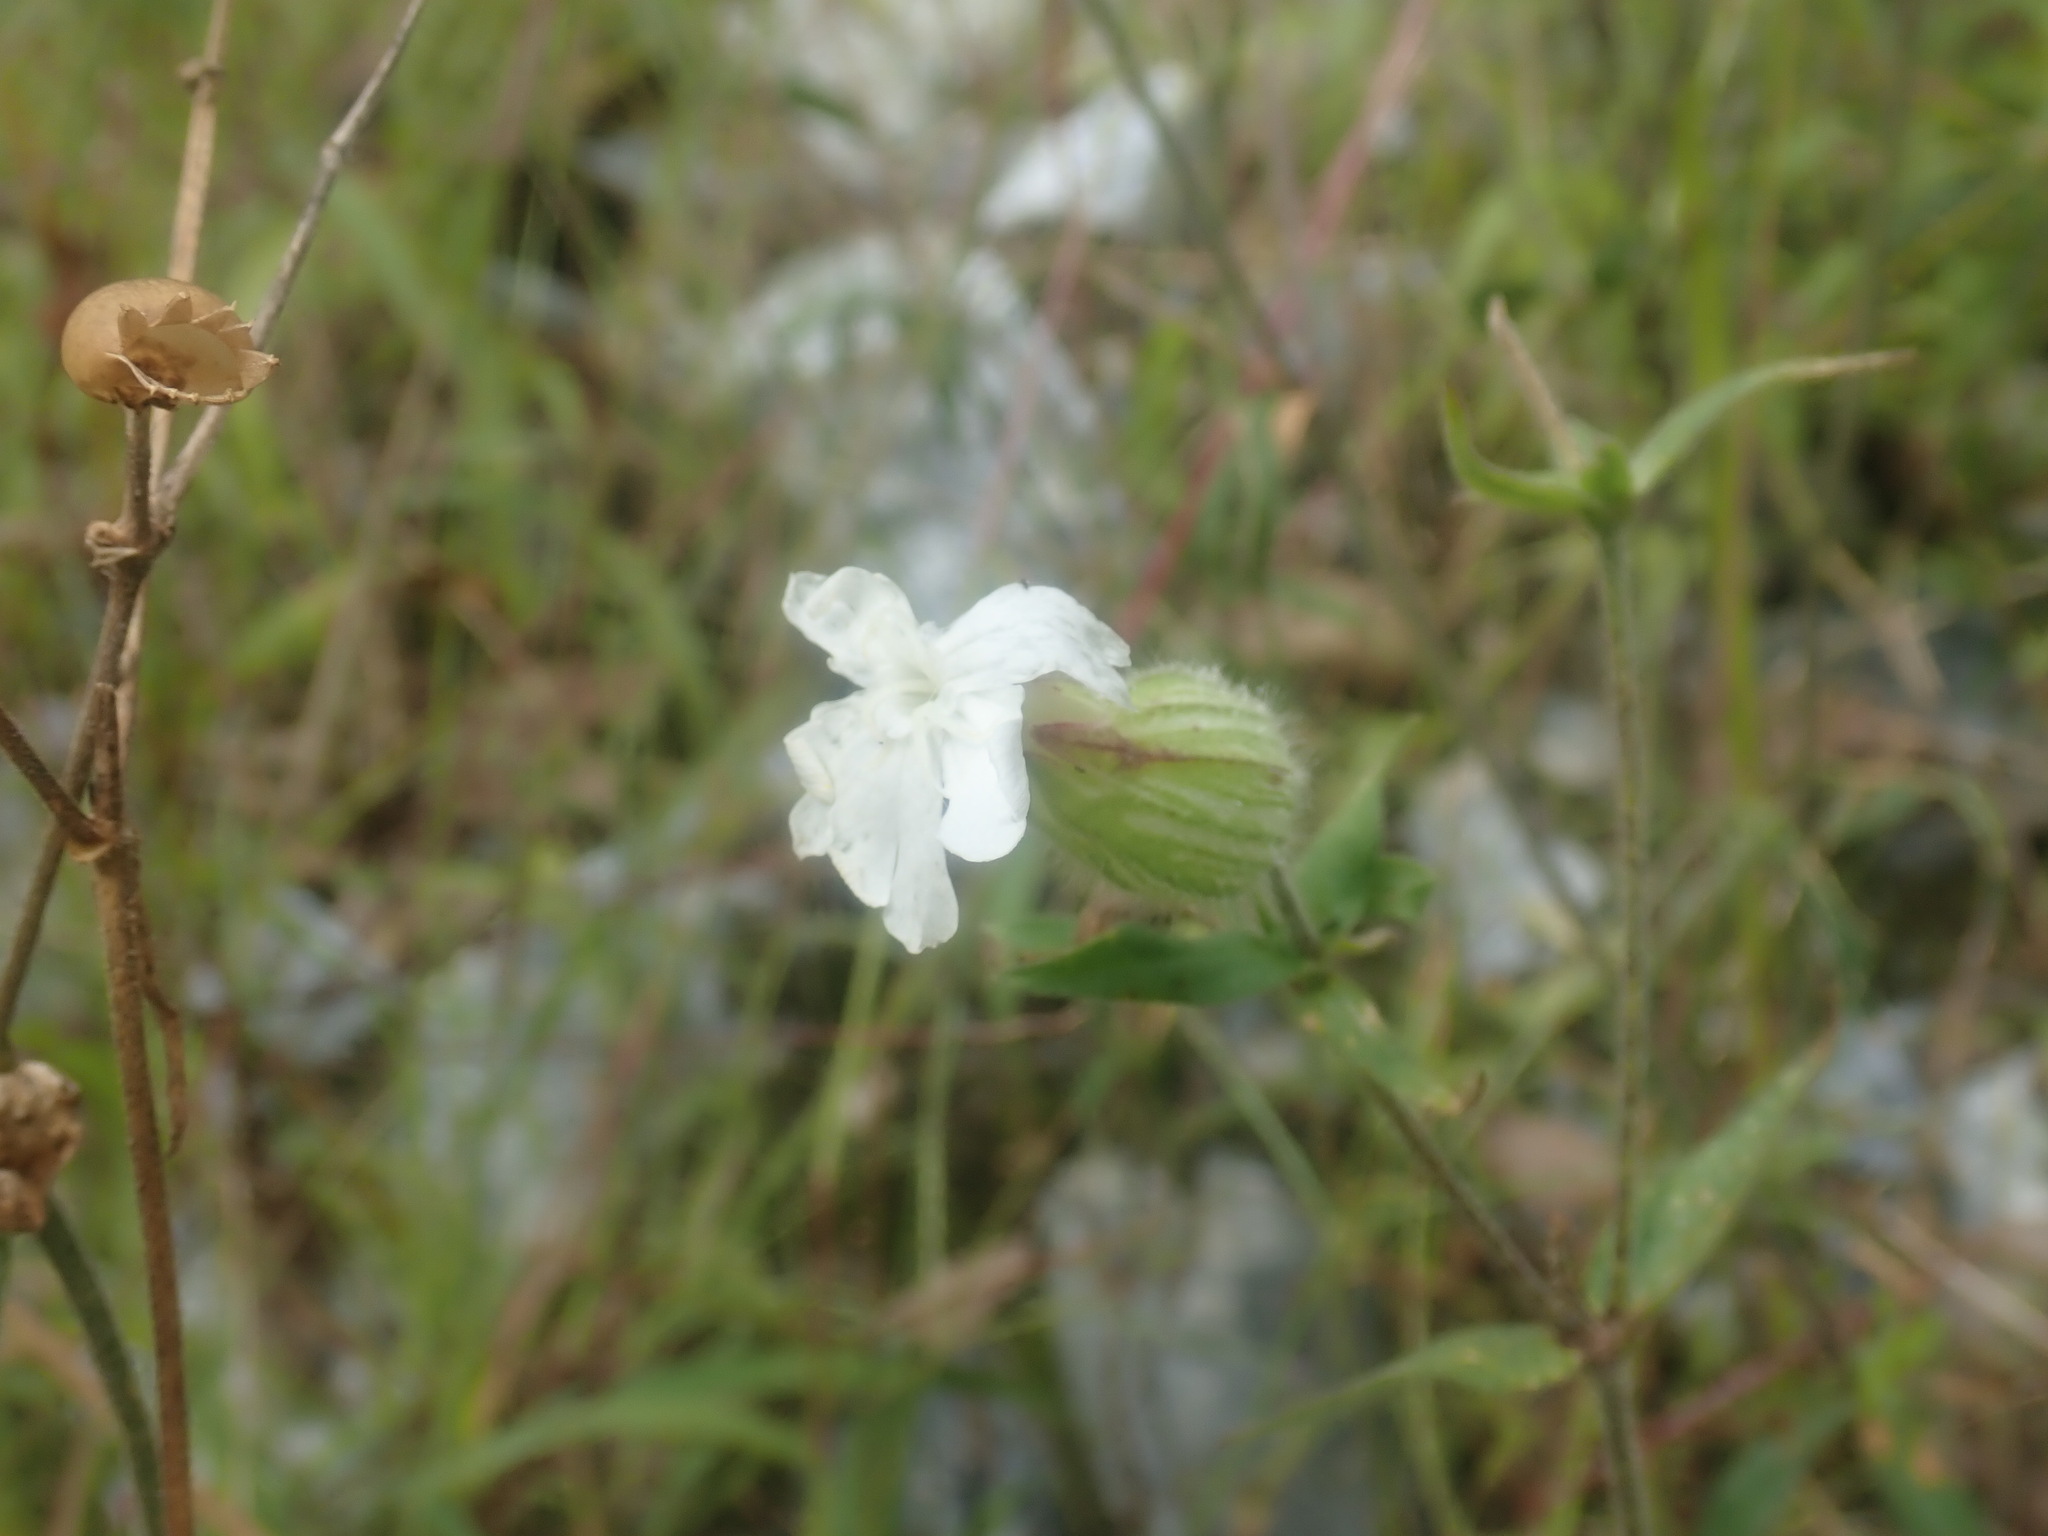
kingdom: Plantae
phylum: Tracheophyta
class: Magnoliopsida
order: Caryophyllales
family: Caryophyllaceae
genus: Silene
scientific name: Silene latifolia
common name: White campion
